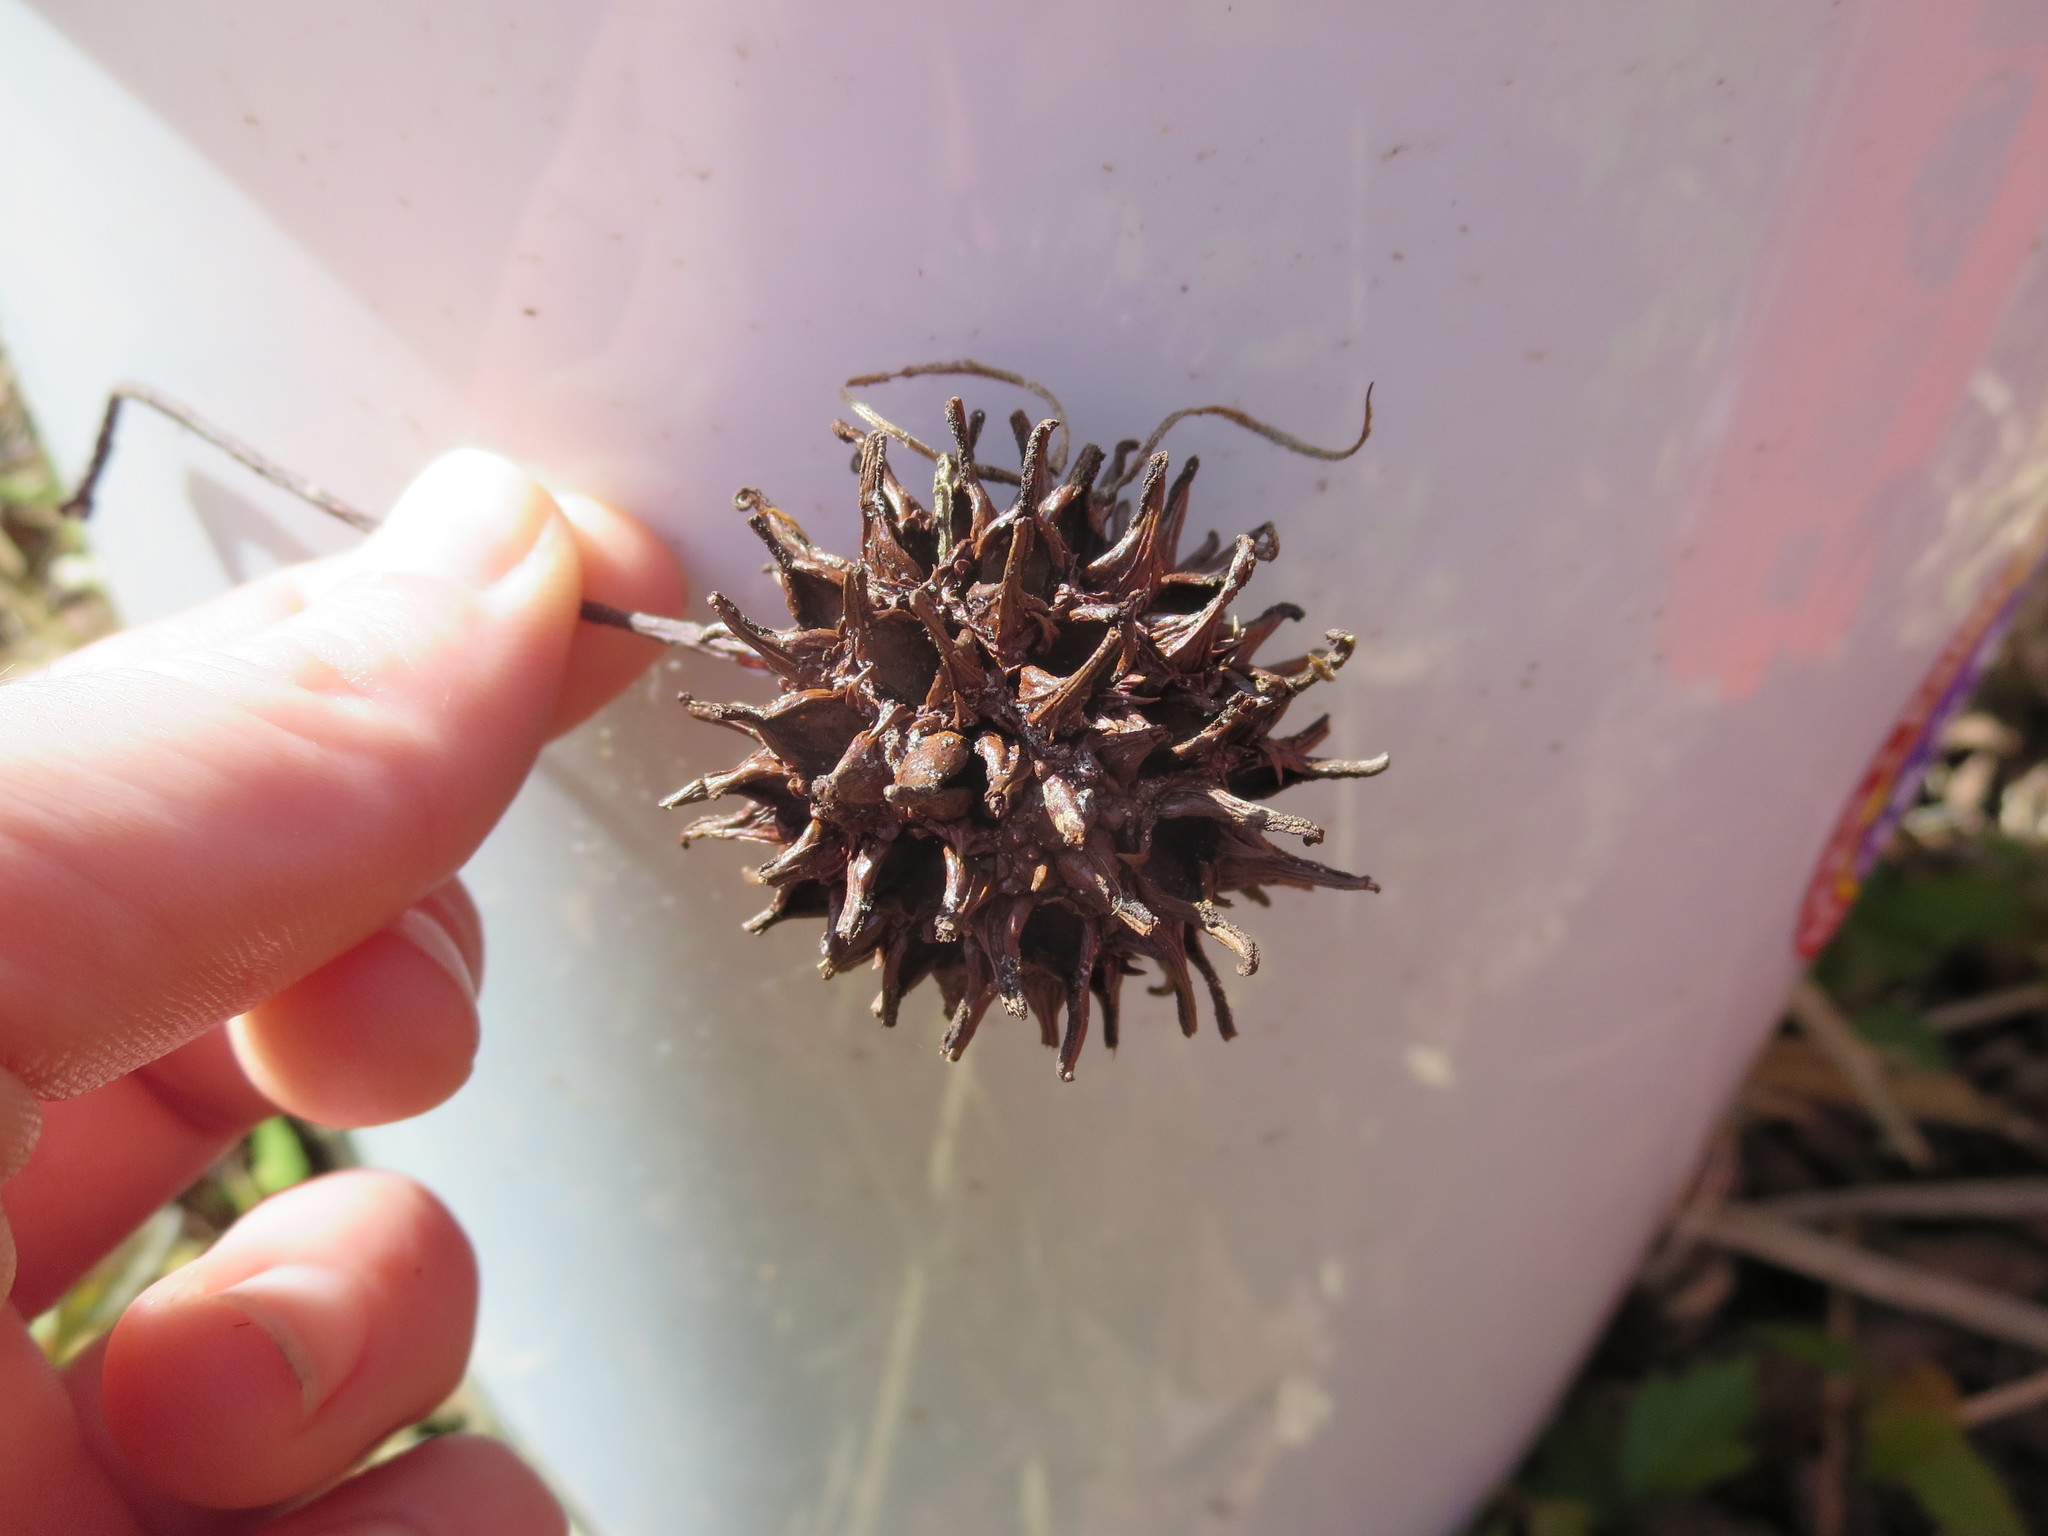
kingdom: Plantae
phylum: Tracheophyta
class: Magnoliopsida
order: Saxifragales
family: Altingiaceae
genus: Liquidambar
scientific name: Liquidambar styraciflua
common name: Sweet gum
